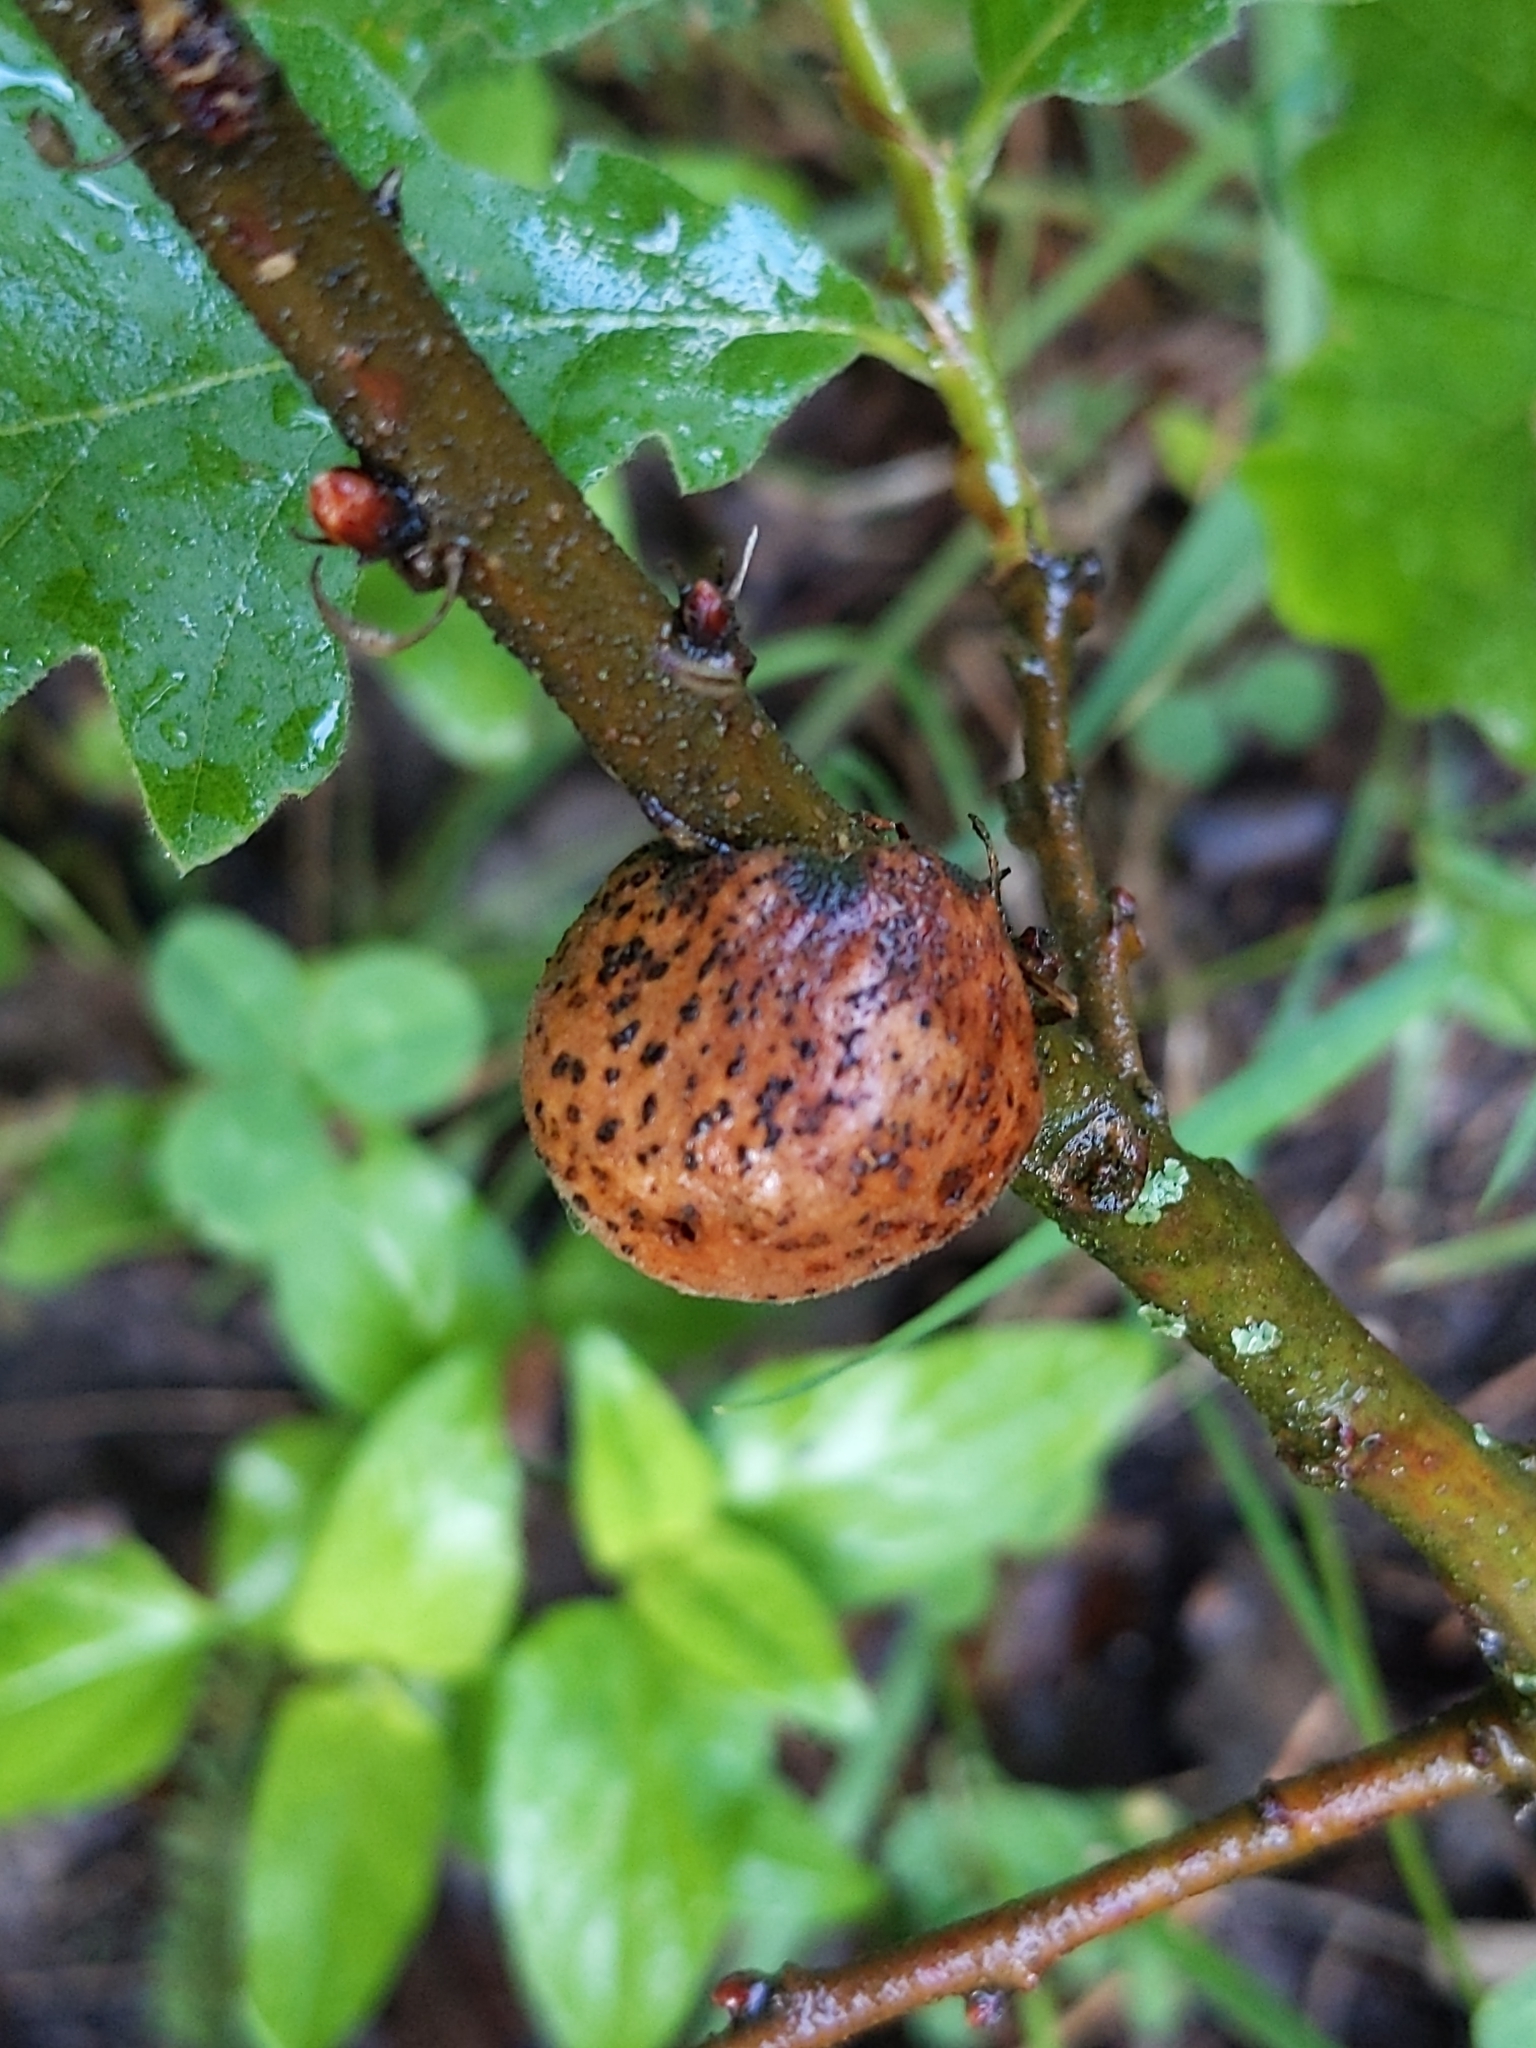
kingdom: Animalia
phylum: Arthropoda
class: Insecta
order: Hymenoptera
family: Cynipidae
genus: Aphelonyx
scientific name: Aphelonyx cerricola
